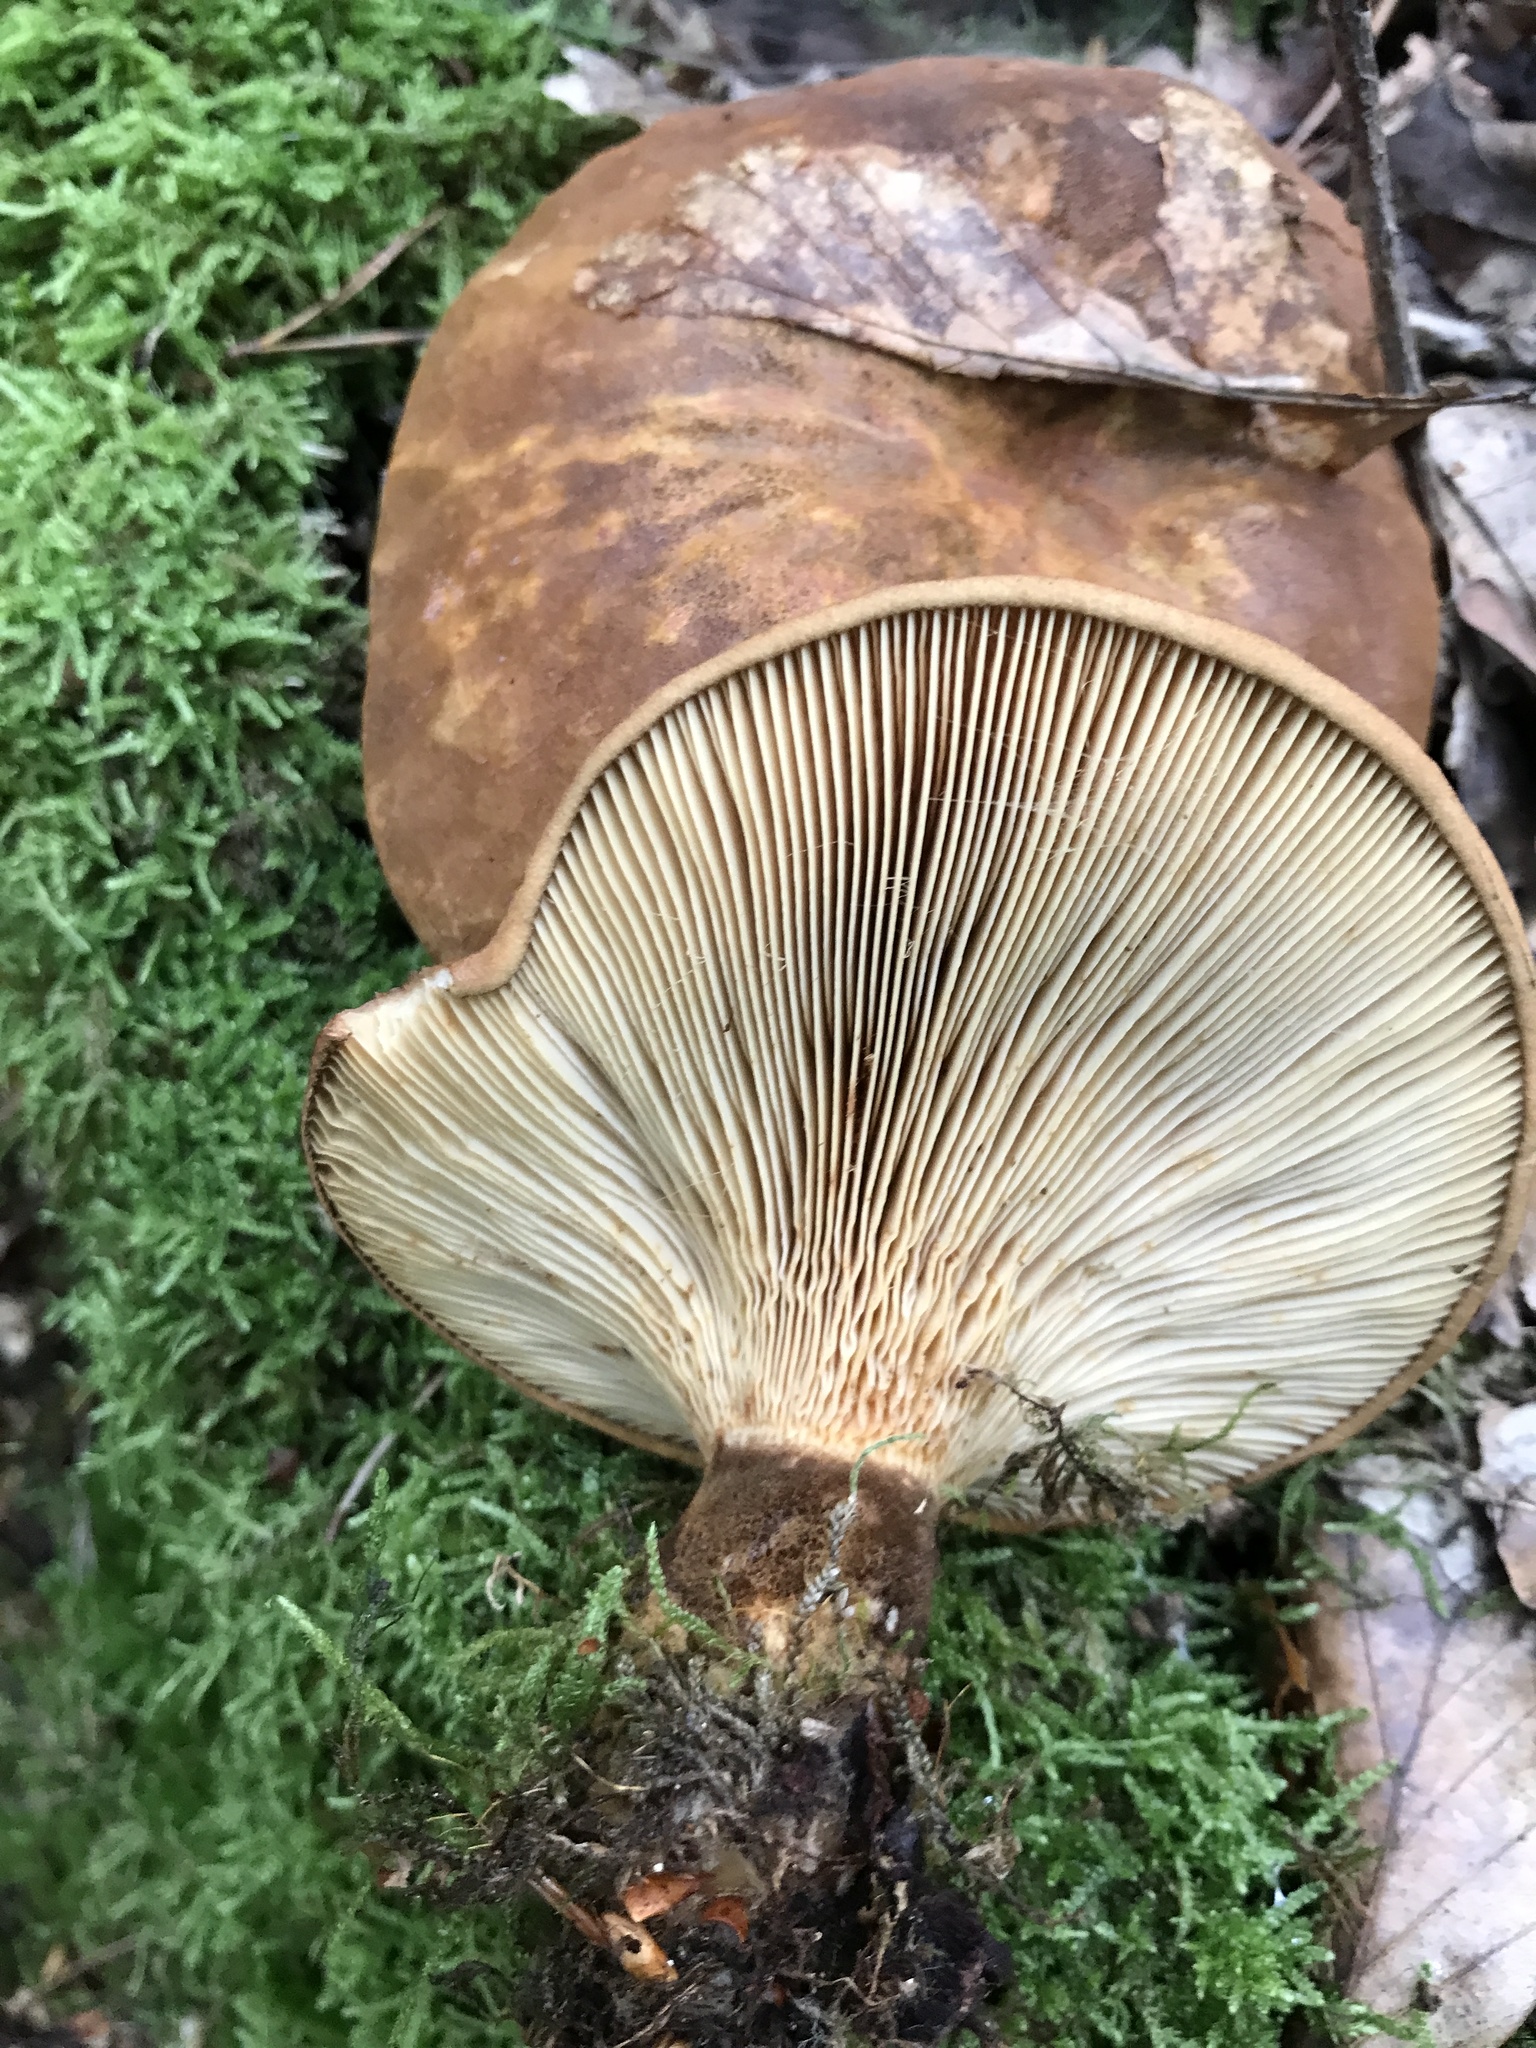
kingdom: Fungi
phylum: Basidiomycota
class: Agaricomycetes
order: Boletales
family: Tapinellaceae
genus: Tapinella
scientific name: Tapinella atrotomentosa
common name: Velvet rollrim
